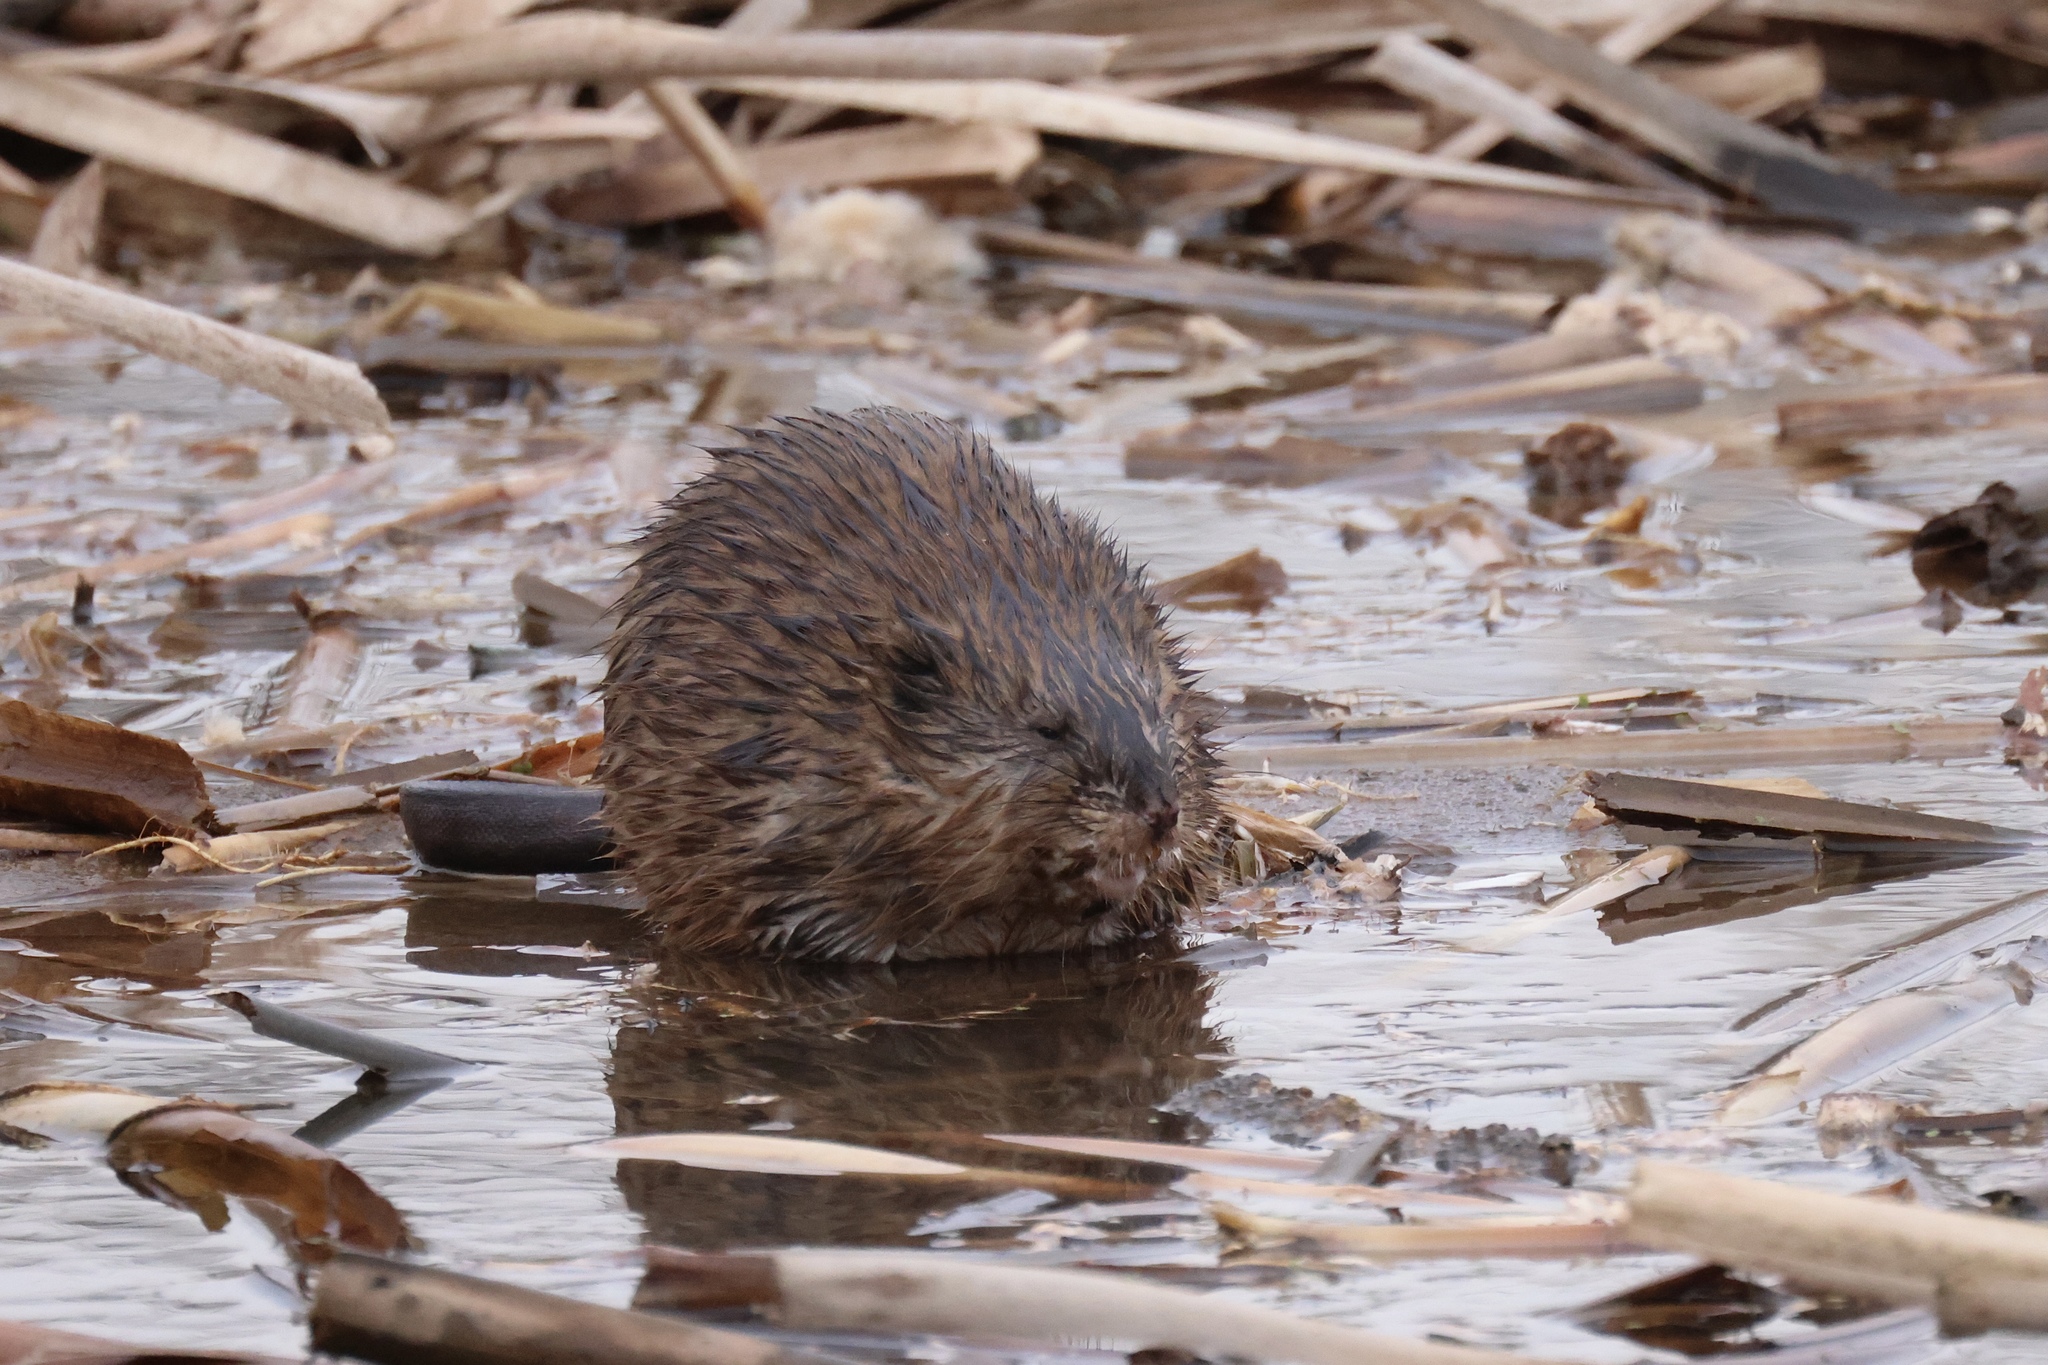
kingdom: Animalia
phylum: Chordata
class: Mammalia
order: Rodentia
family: Cricetidae
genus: Ondatra
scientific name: Ondatra zibethicus
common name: Muskrat
